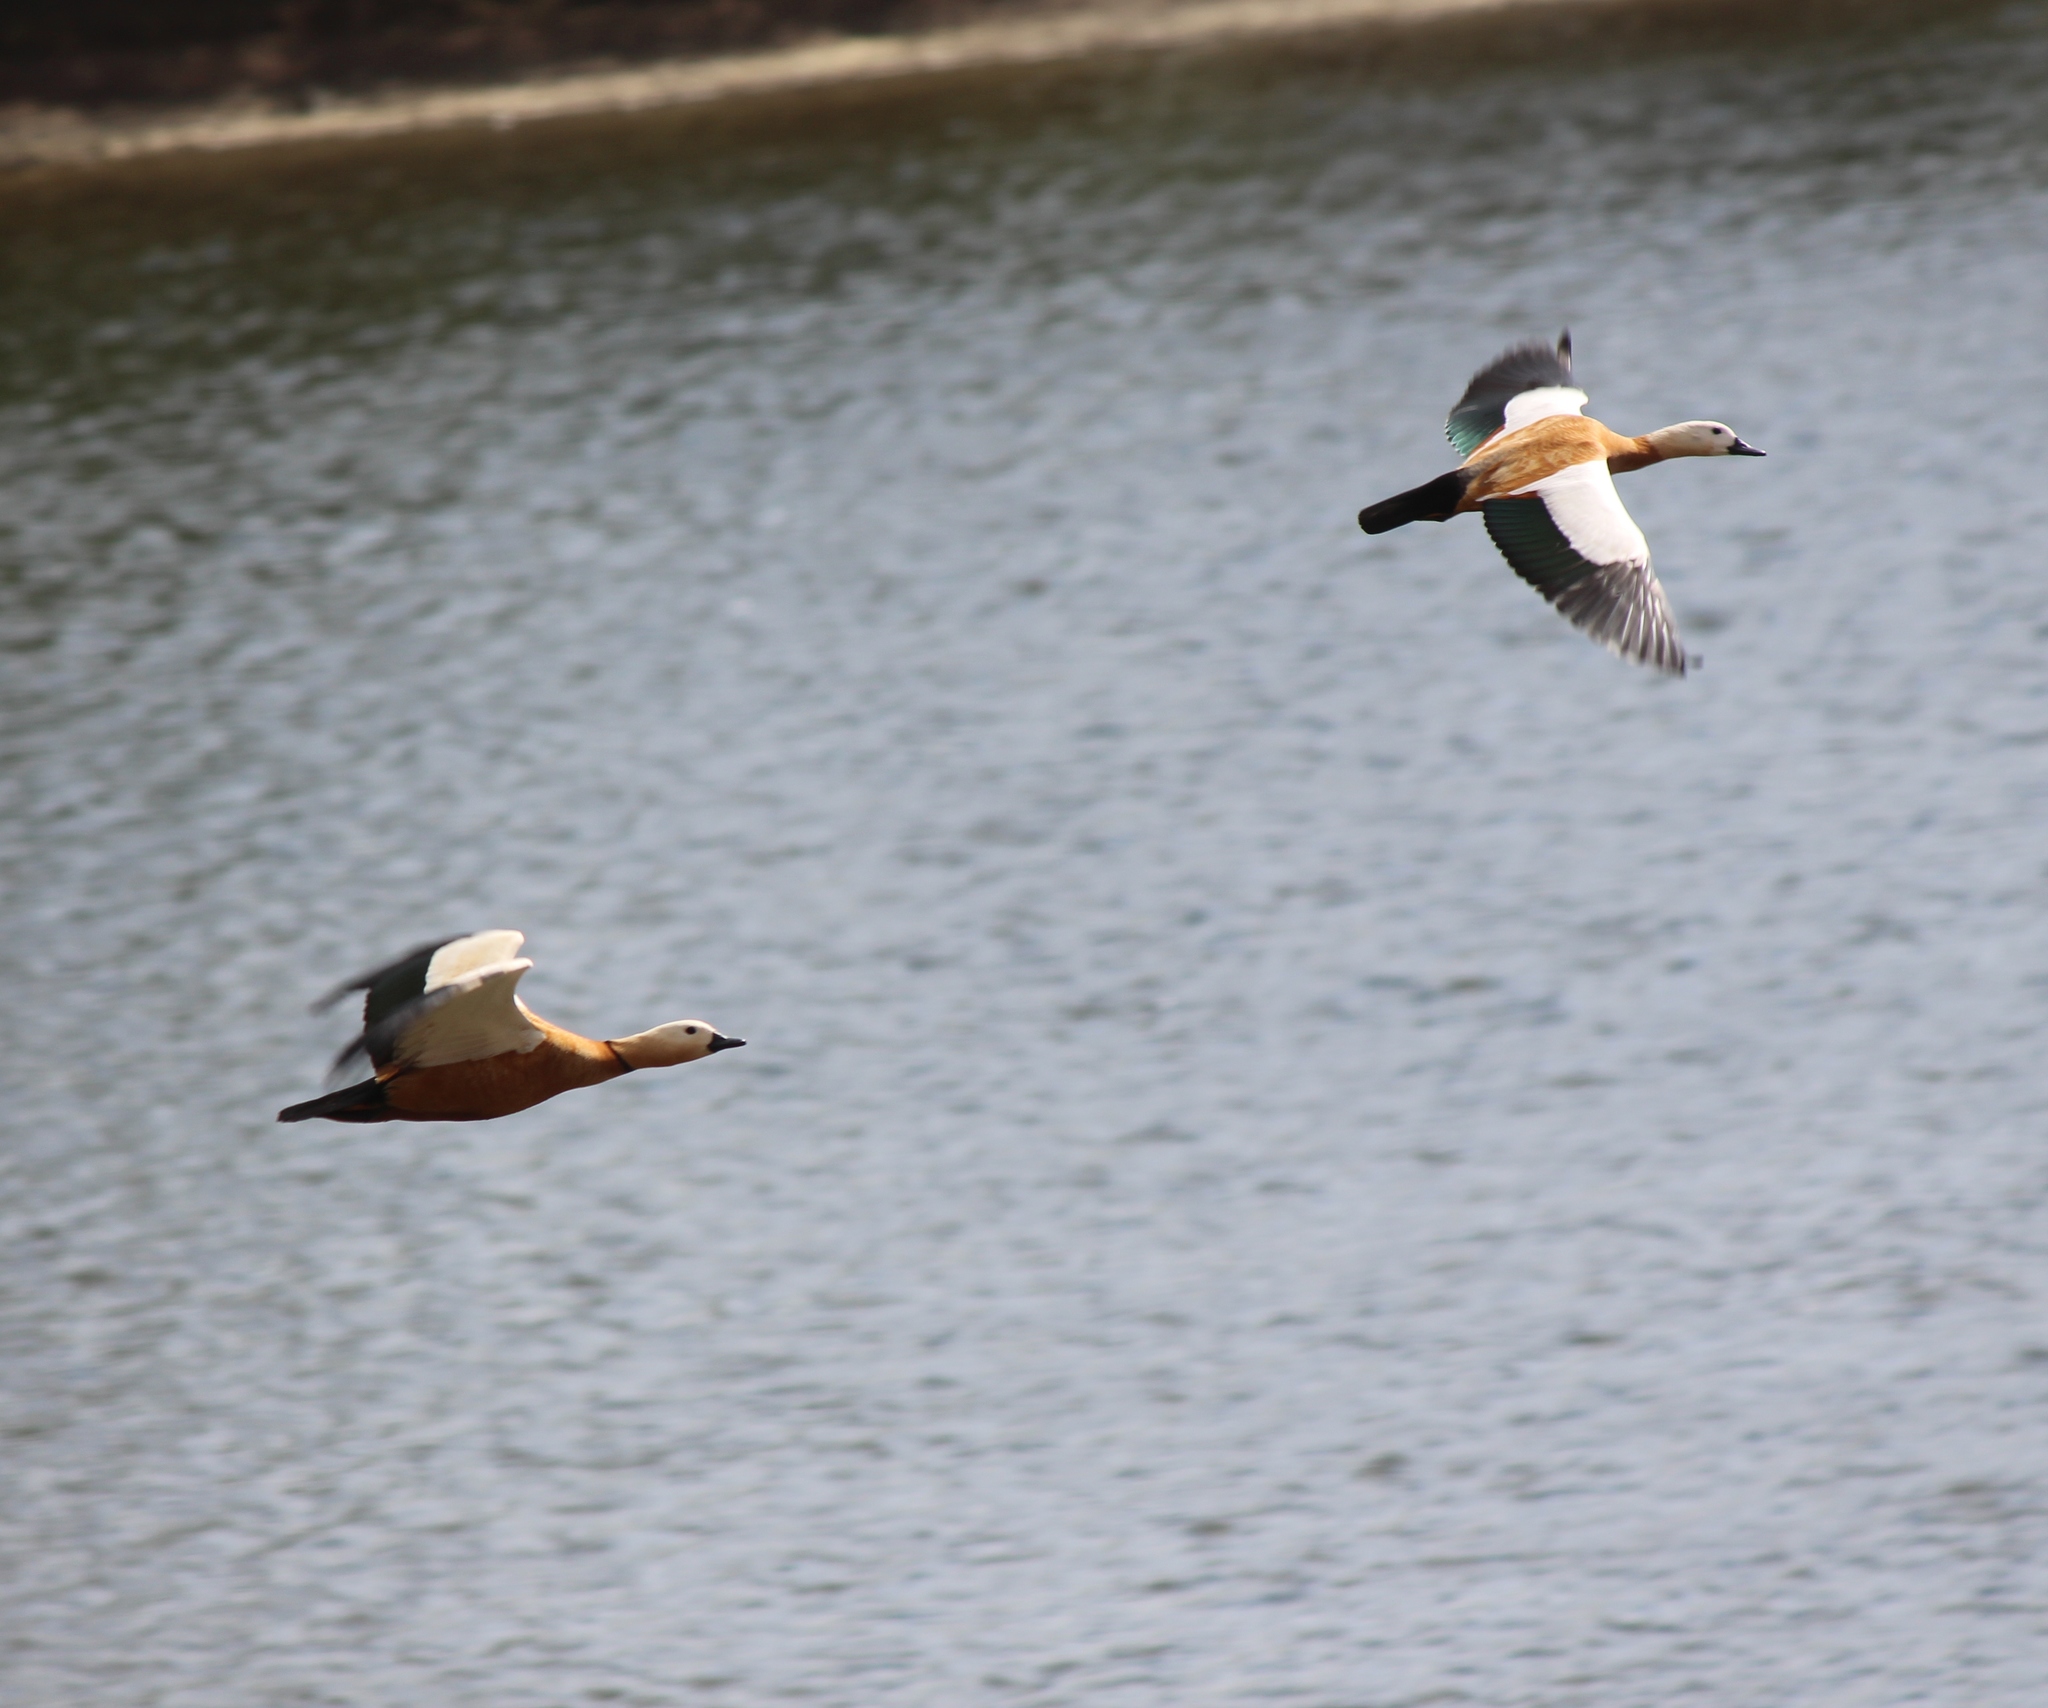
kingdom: Animalia
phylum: Chordata
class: Aves
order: Anseriformes
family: Anatidae
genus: Tadorna
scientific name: Tadorna ferruginea
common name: Ruddy shelduck
